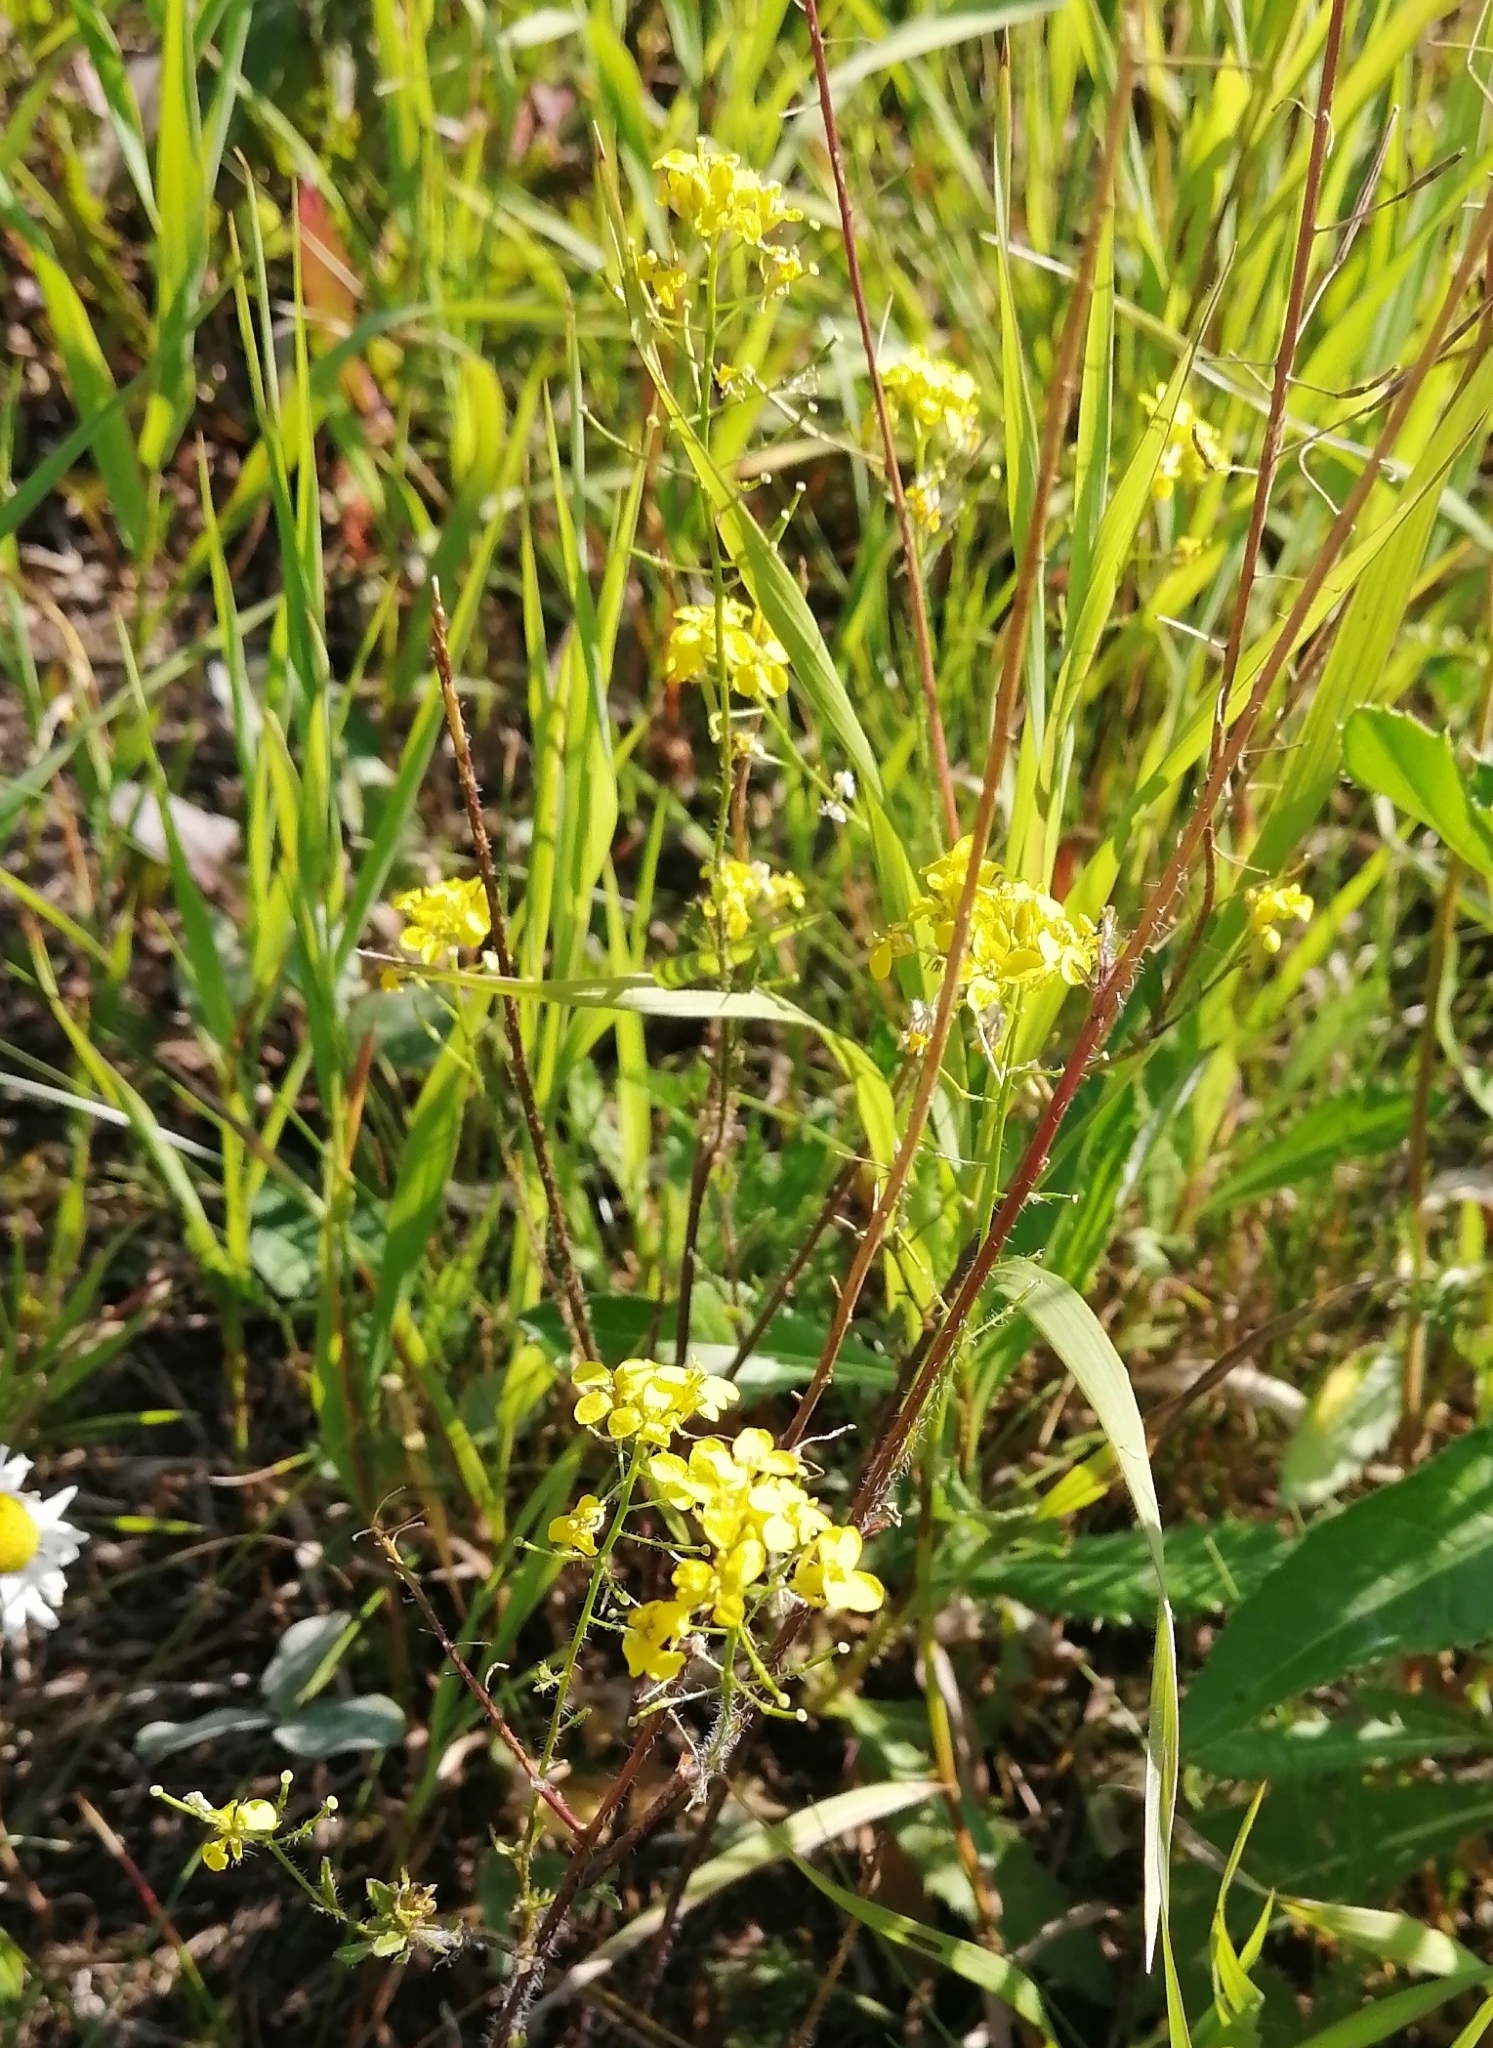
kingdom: Plantae
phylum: Tracheophyta
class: Magnoliopsida
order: Brassicales
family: Brassicaceae
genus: Sisymbrium
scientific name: Sisymbrium loeselii
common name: False london-rocket
